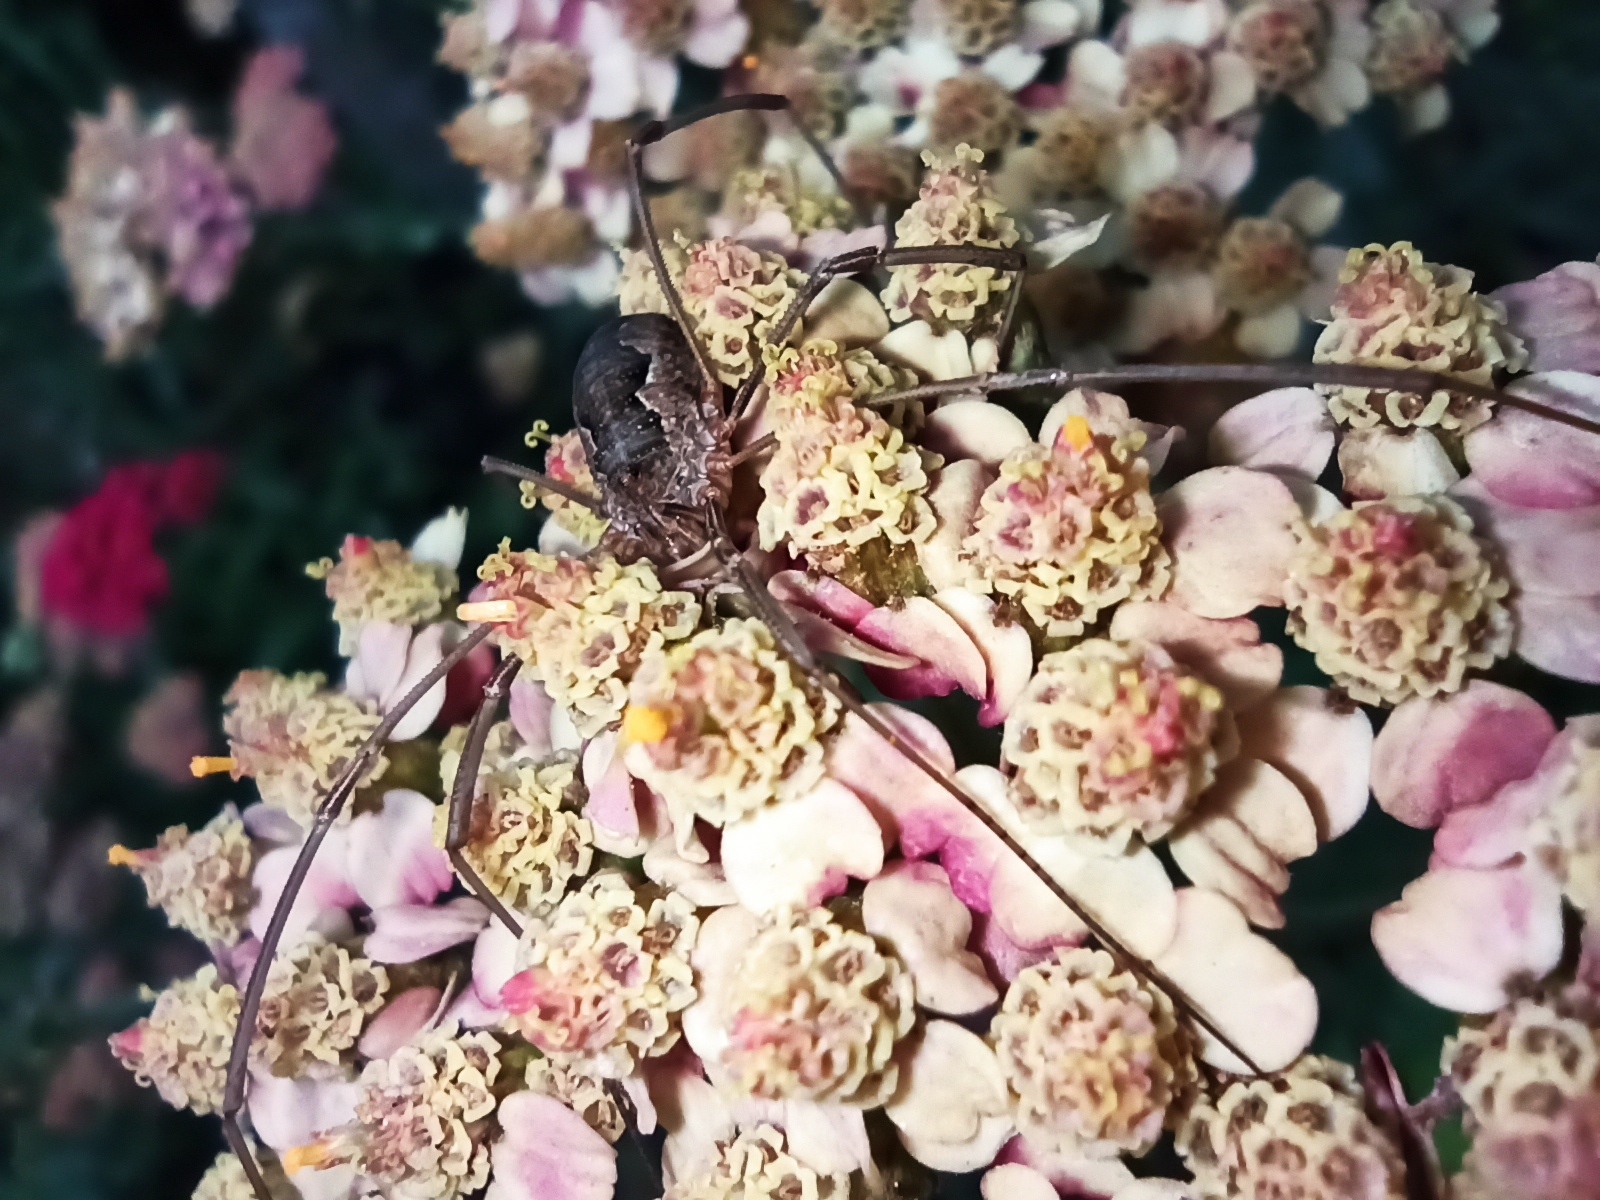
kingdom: Animalia
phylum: Arthropoda
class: Arachnida
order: Opiliones
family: Phalangiidae
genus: Phalangium
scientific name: Phalangium opilio
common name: Daddy longleg
